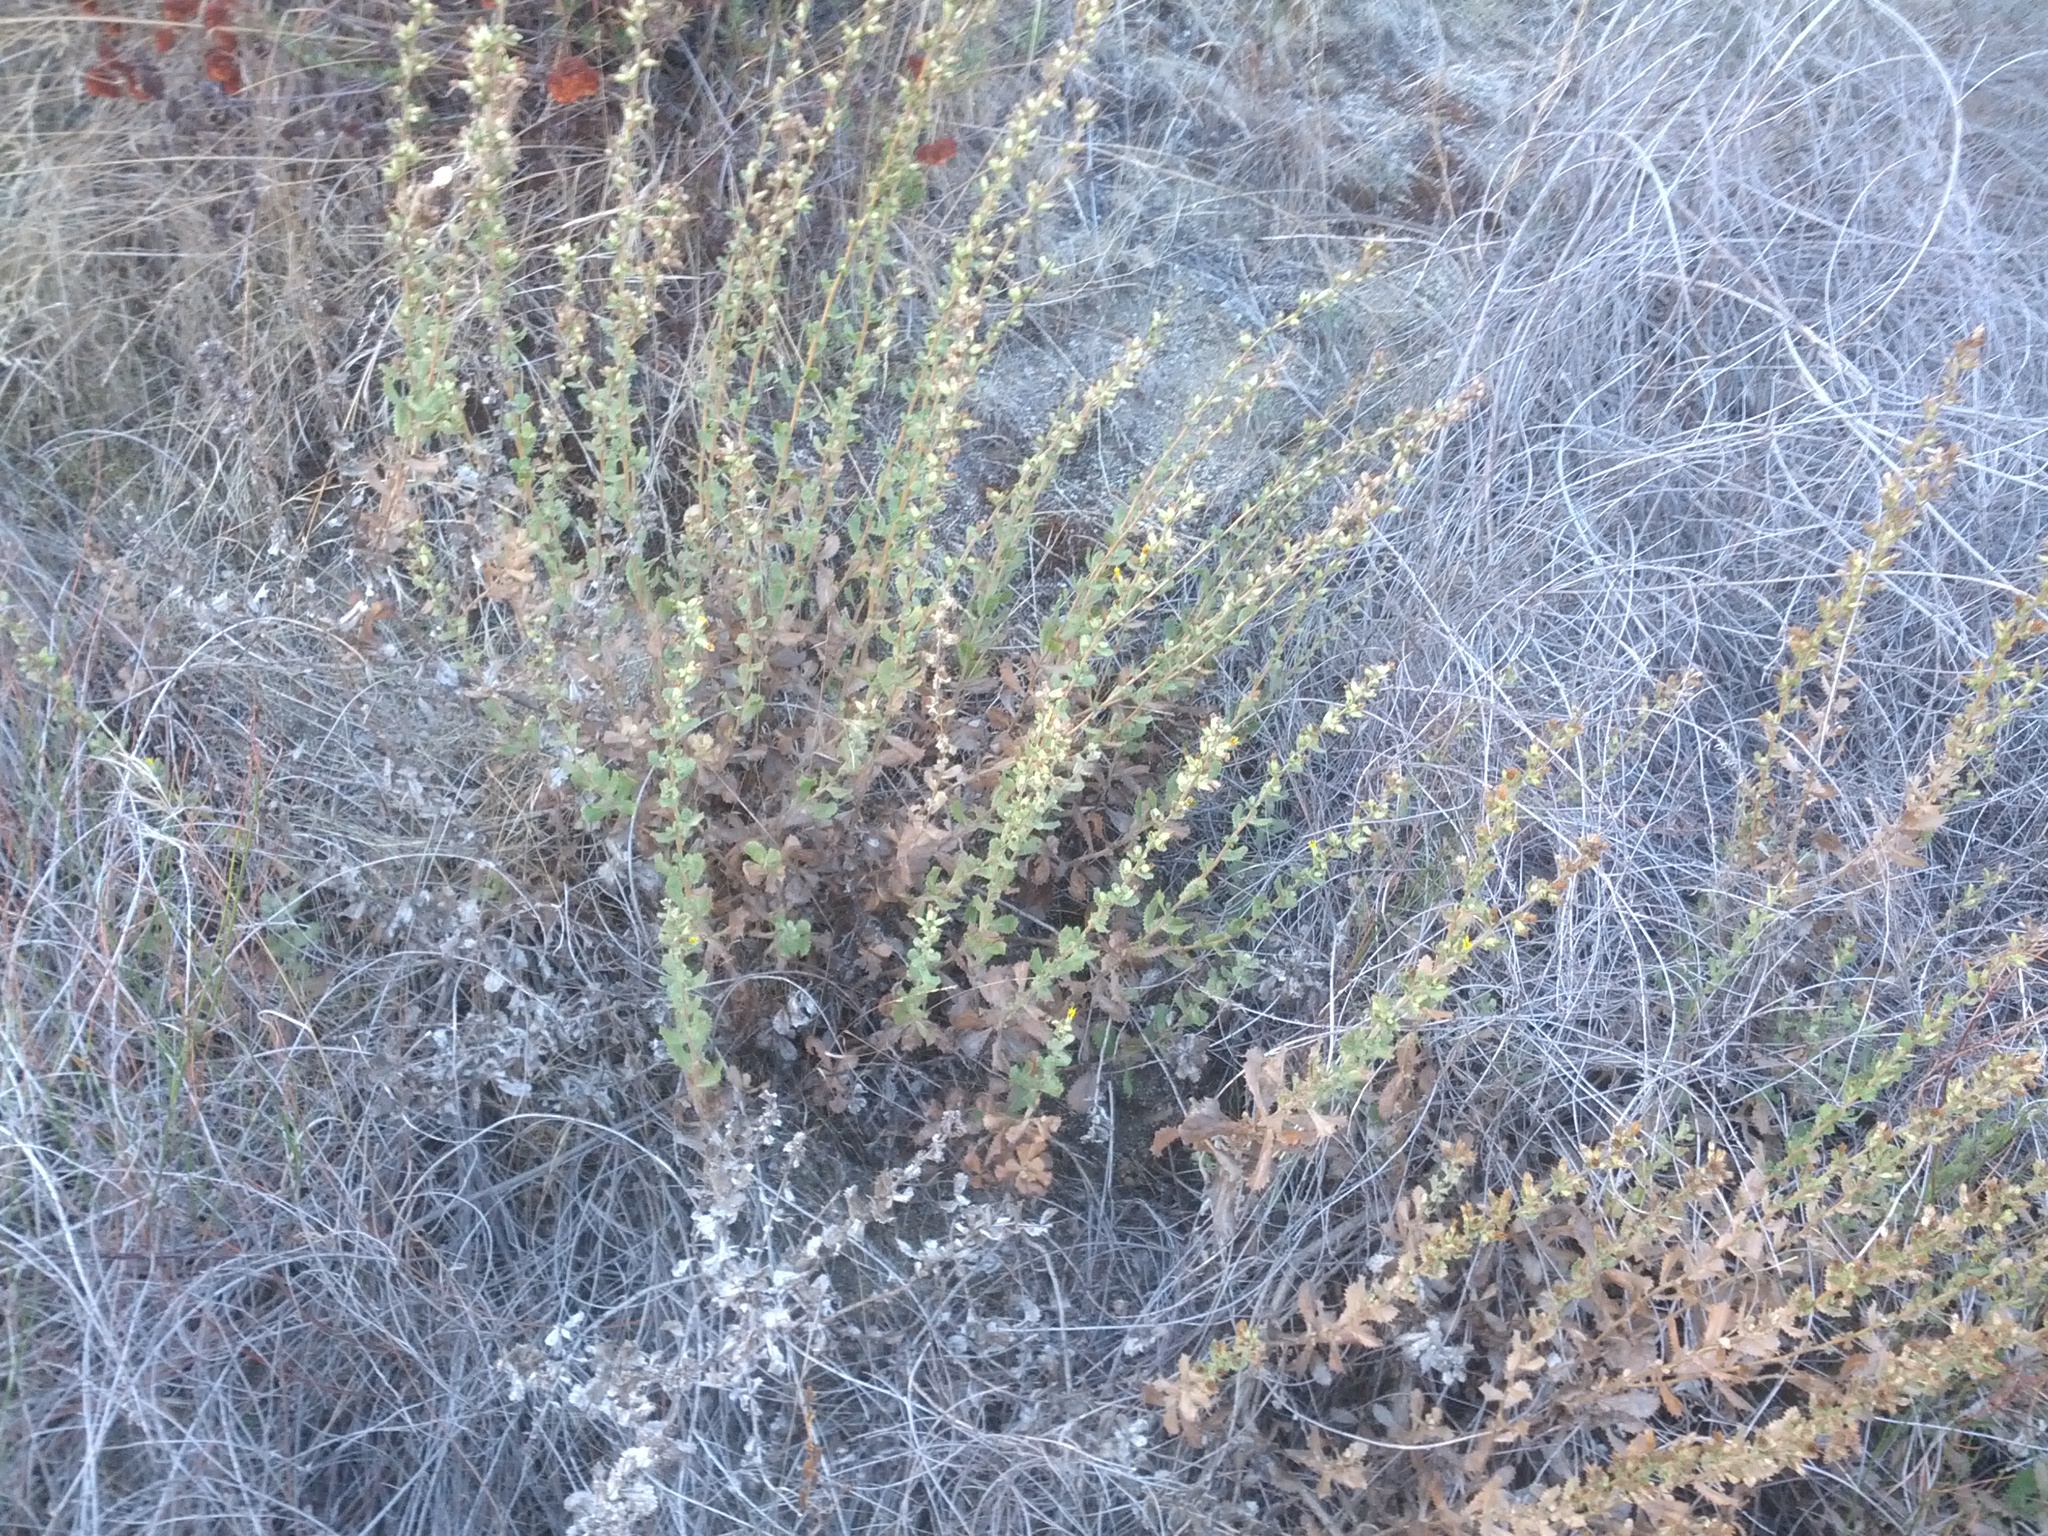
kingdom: Plantae
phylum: Tracheophyta
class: Magnoliopsida
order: Asterales
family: Asteraceae
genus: Hazardia
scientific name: Hazardia squarrosa
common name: Saw-tooth goldenbush
